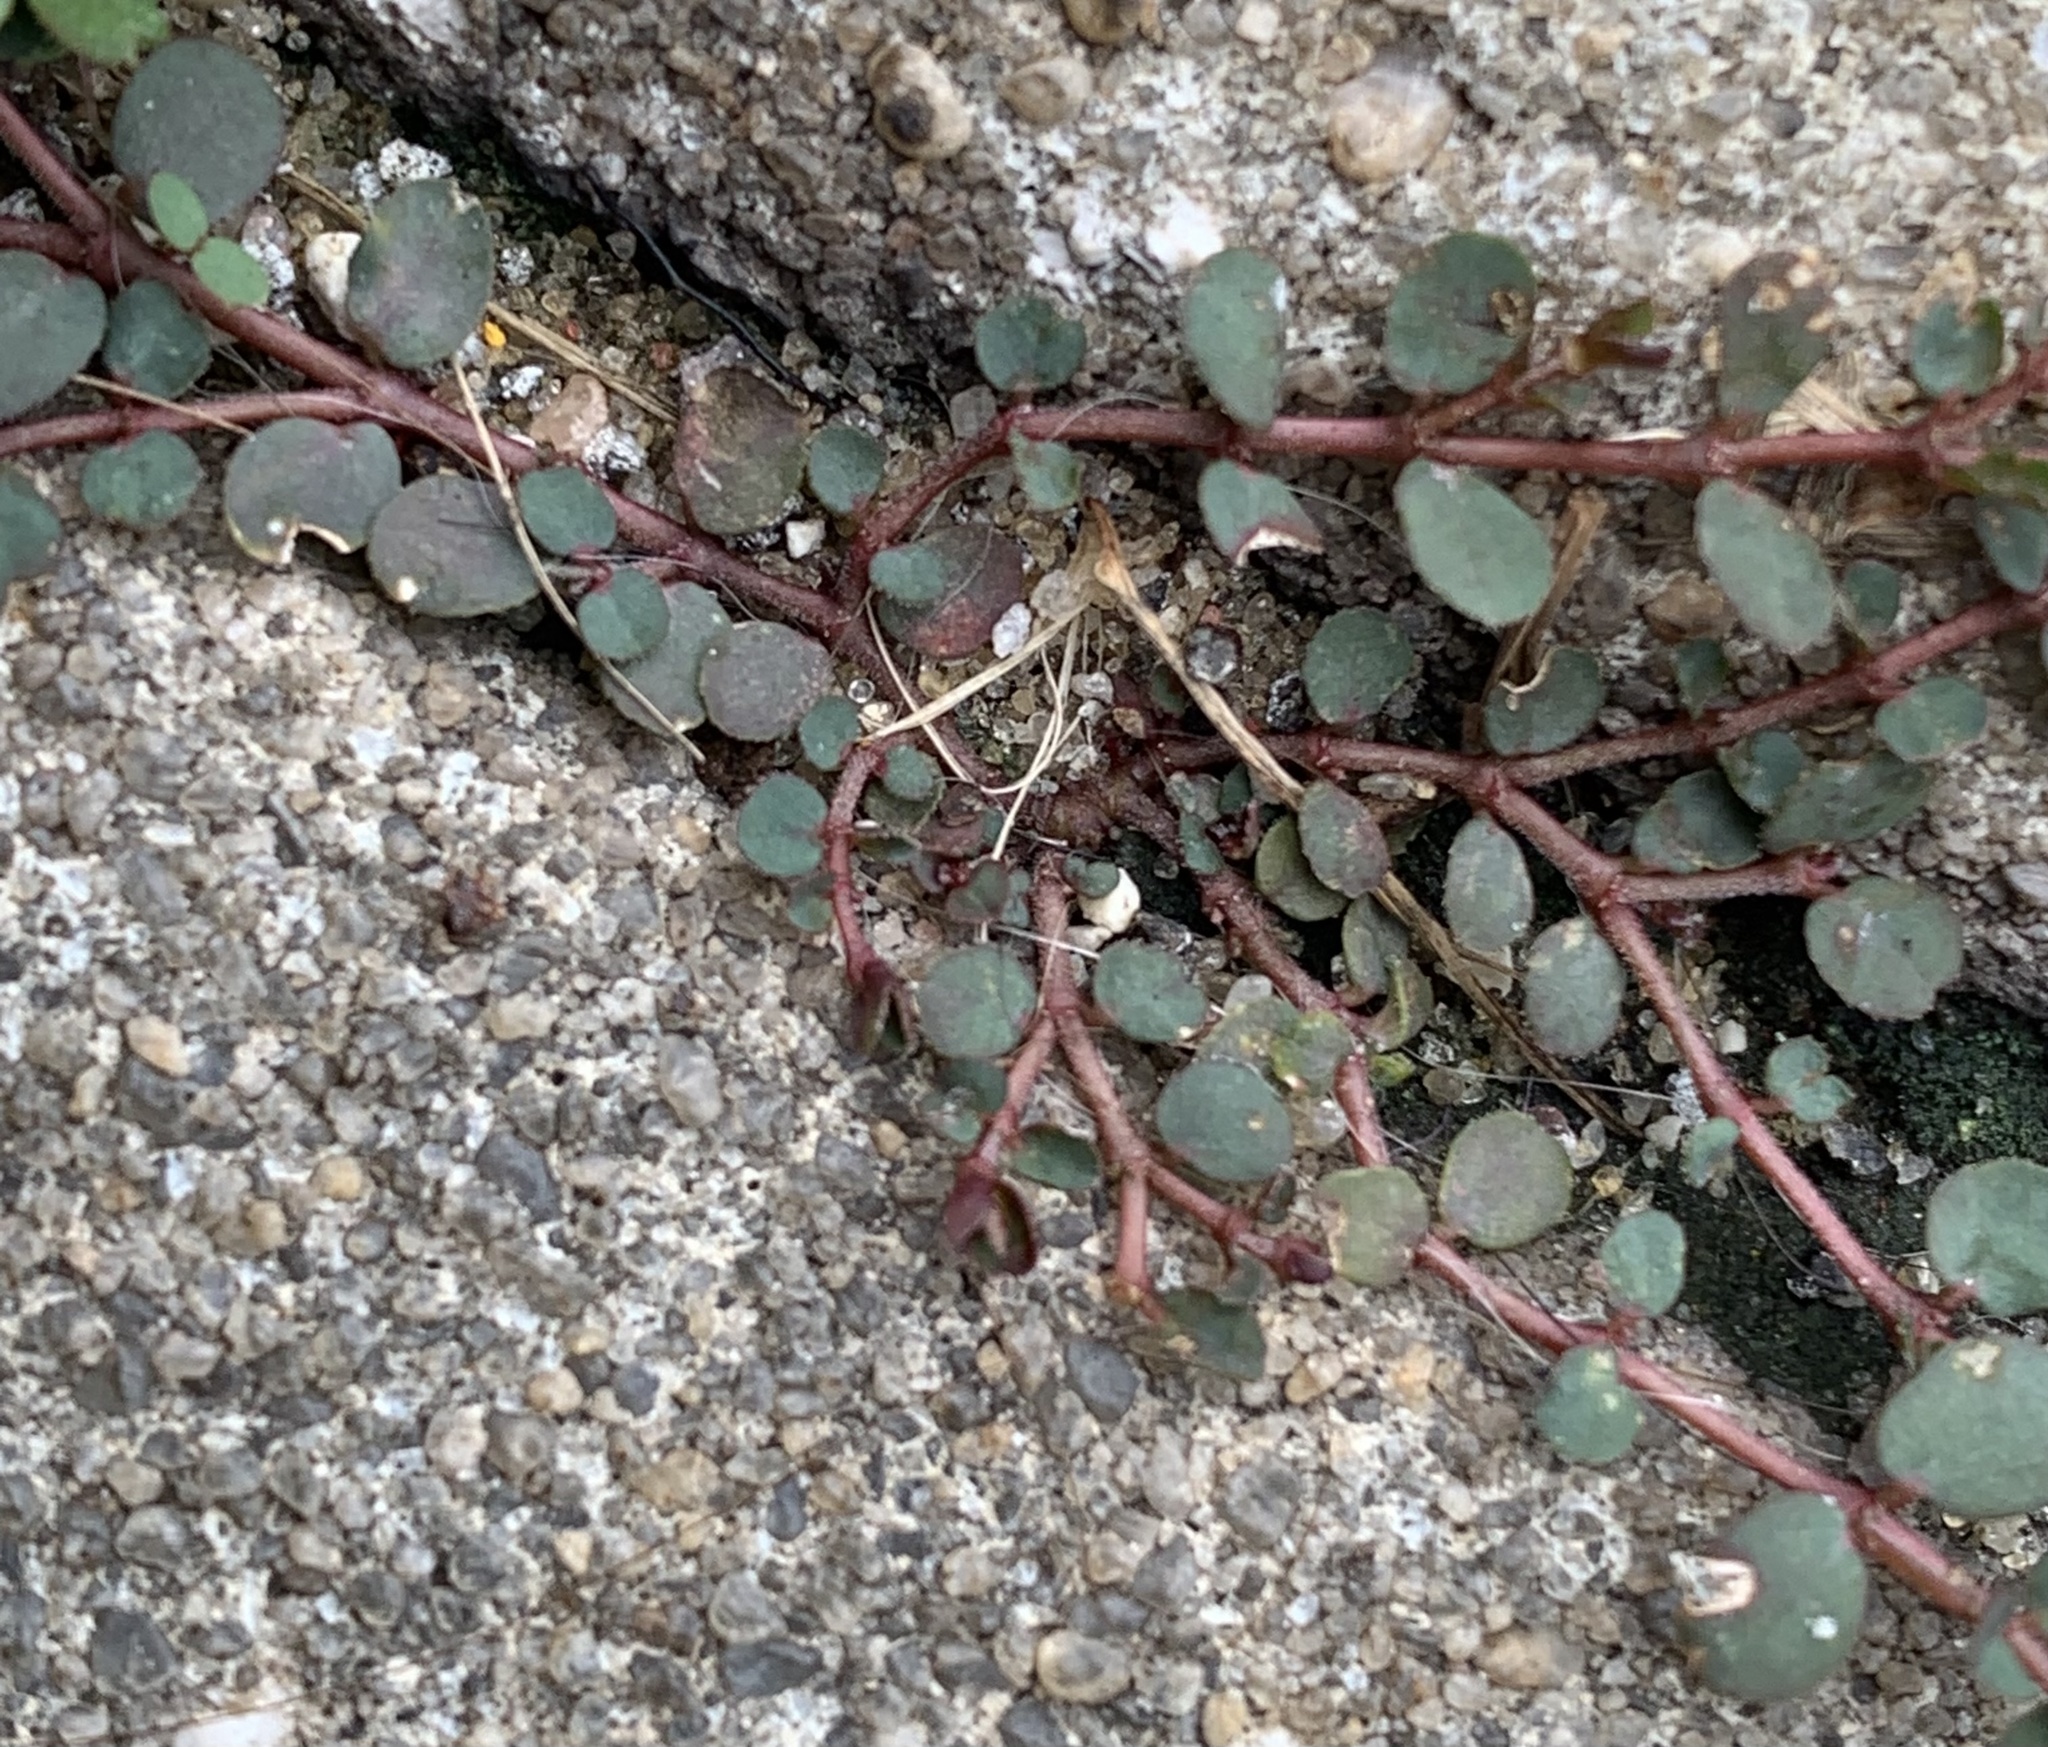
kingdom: Plantae
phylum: Tracheophyta
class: Magnoliopsida
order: Malpighiales
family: Euphorbiaceae
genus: Euphorbia
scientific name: Euphorbia prostrata
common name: Prostrate sandmat
